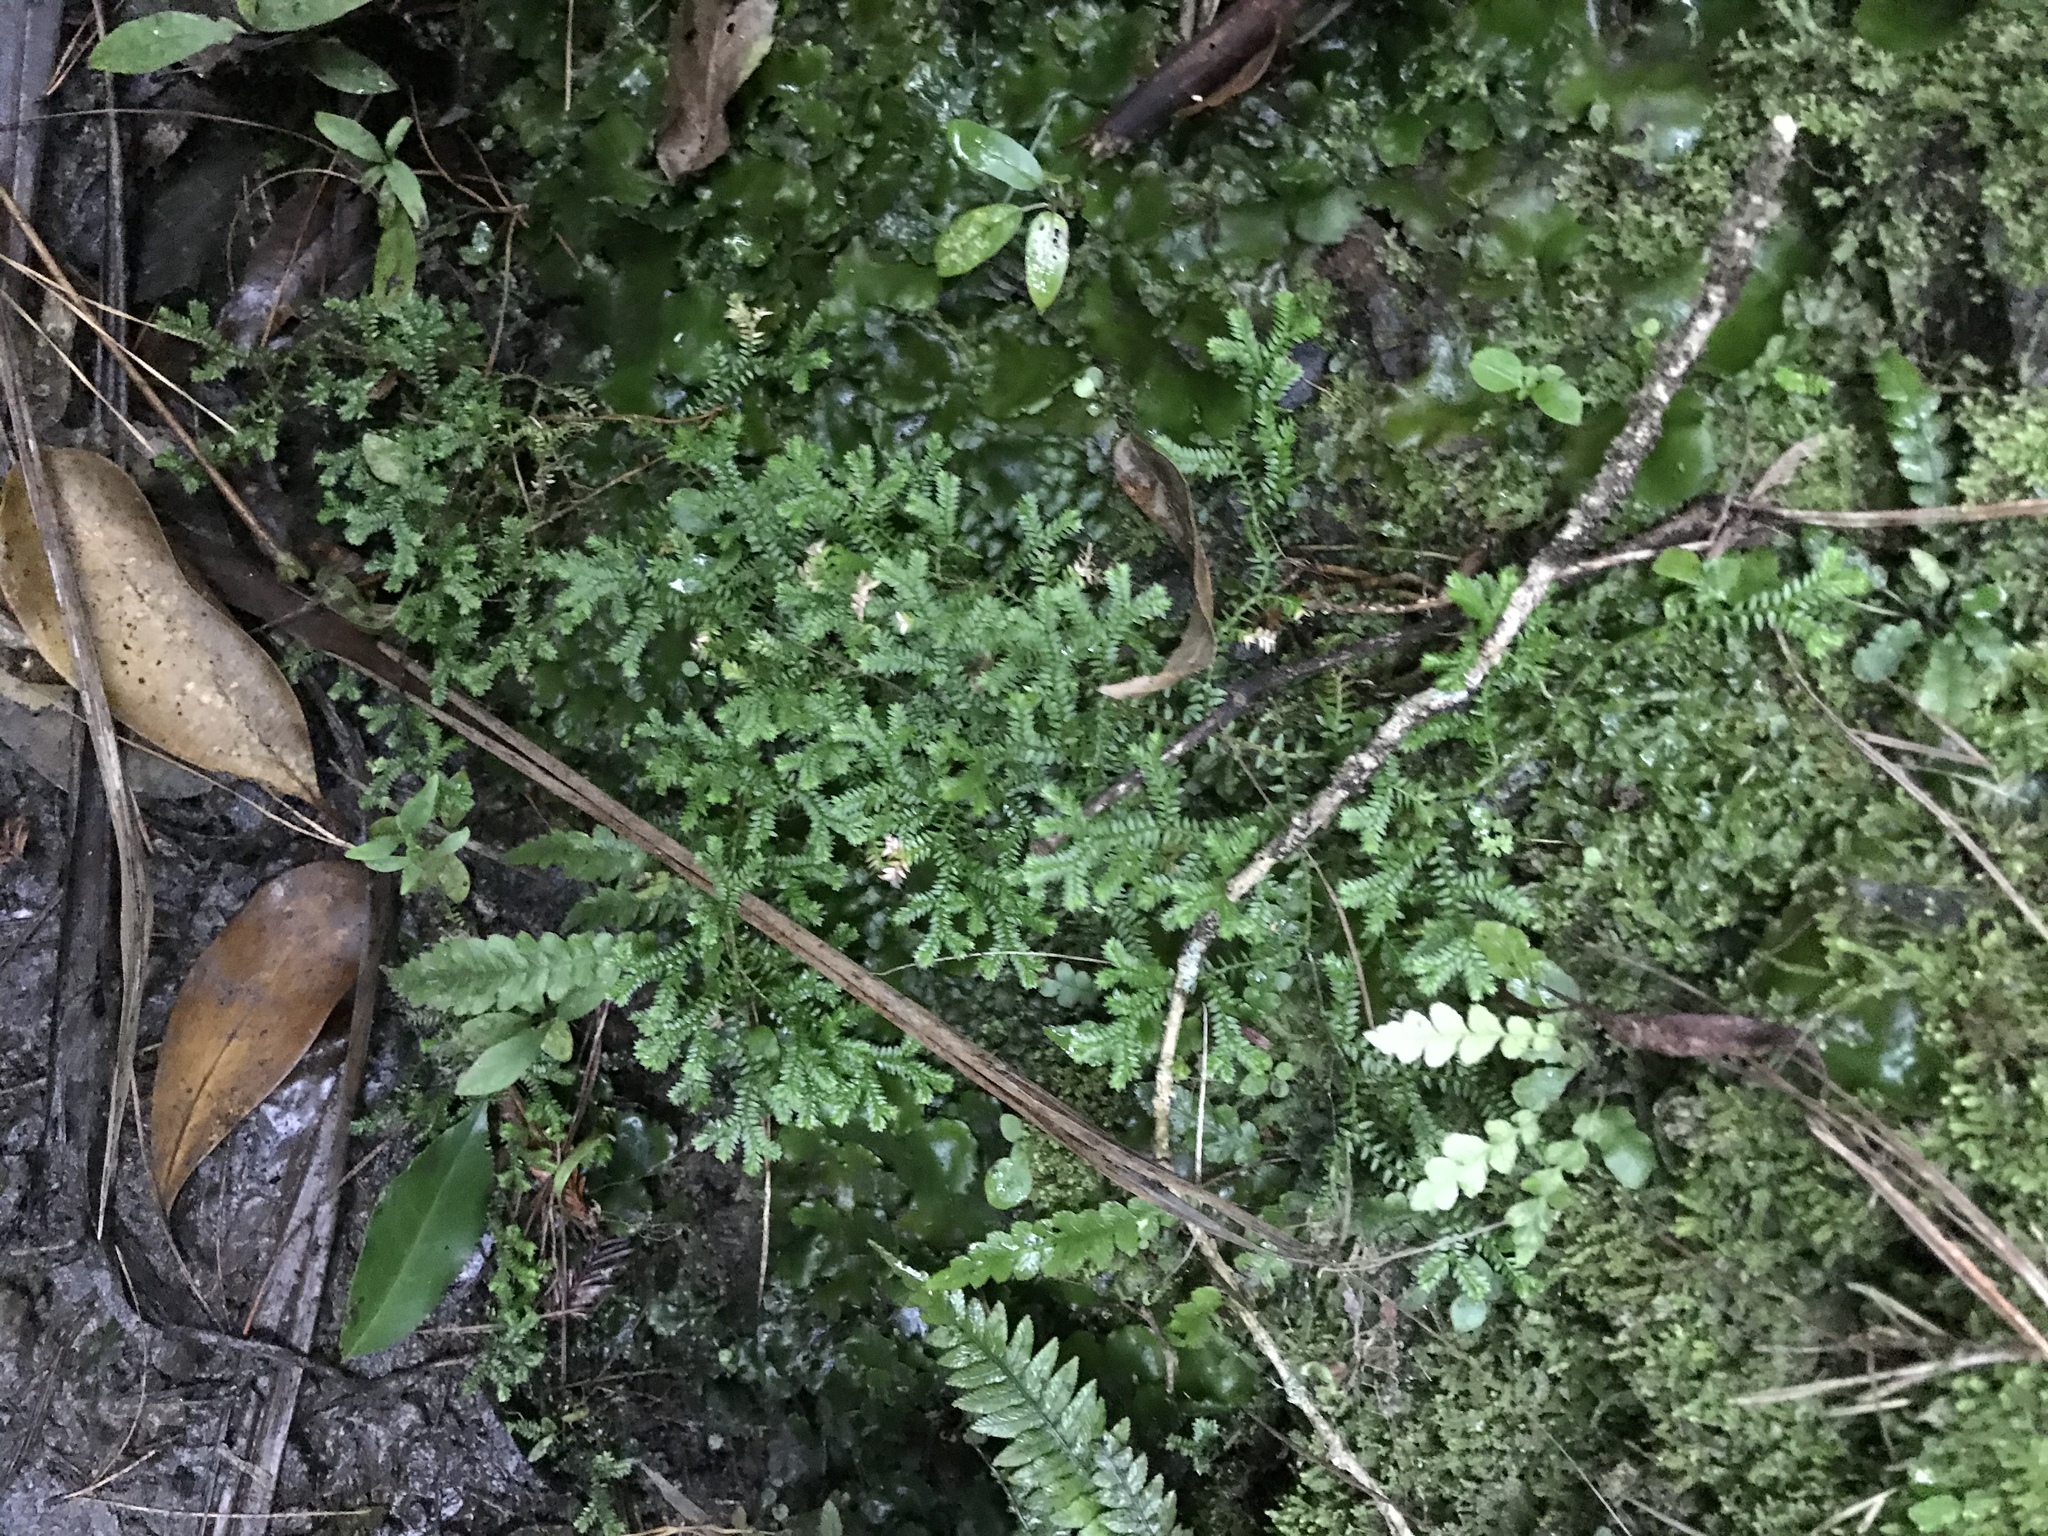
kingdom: Plantae
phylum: Tracheophyta
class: Lycopodiopsida
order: Selaginellales
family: Selaginellaceae
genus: Selaginella
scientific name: Selaginella kraussiana
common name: Krauss' spikemoss
